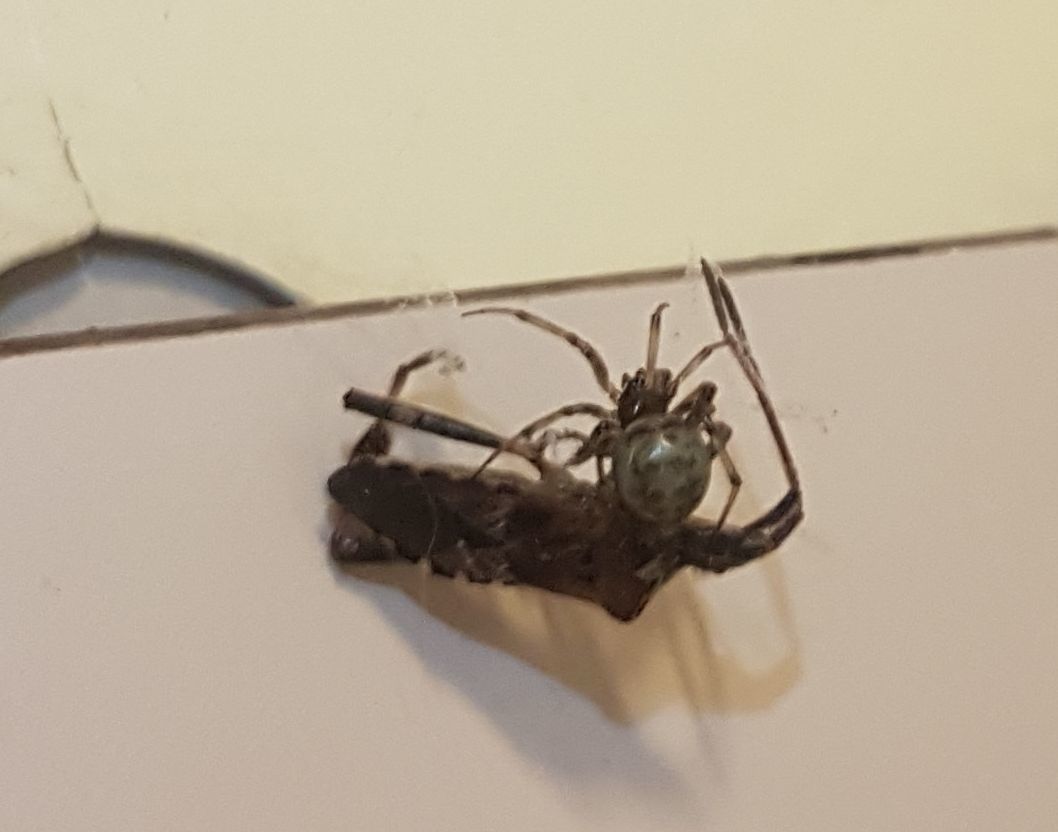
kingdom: Animalia
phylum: Arthropoda
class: Arachnida
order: Araneae
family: Theridiidae
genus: Steatoda
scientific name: Steatoda triangulosa
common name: Triangulate bud spider
